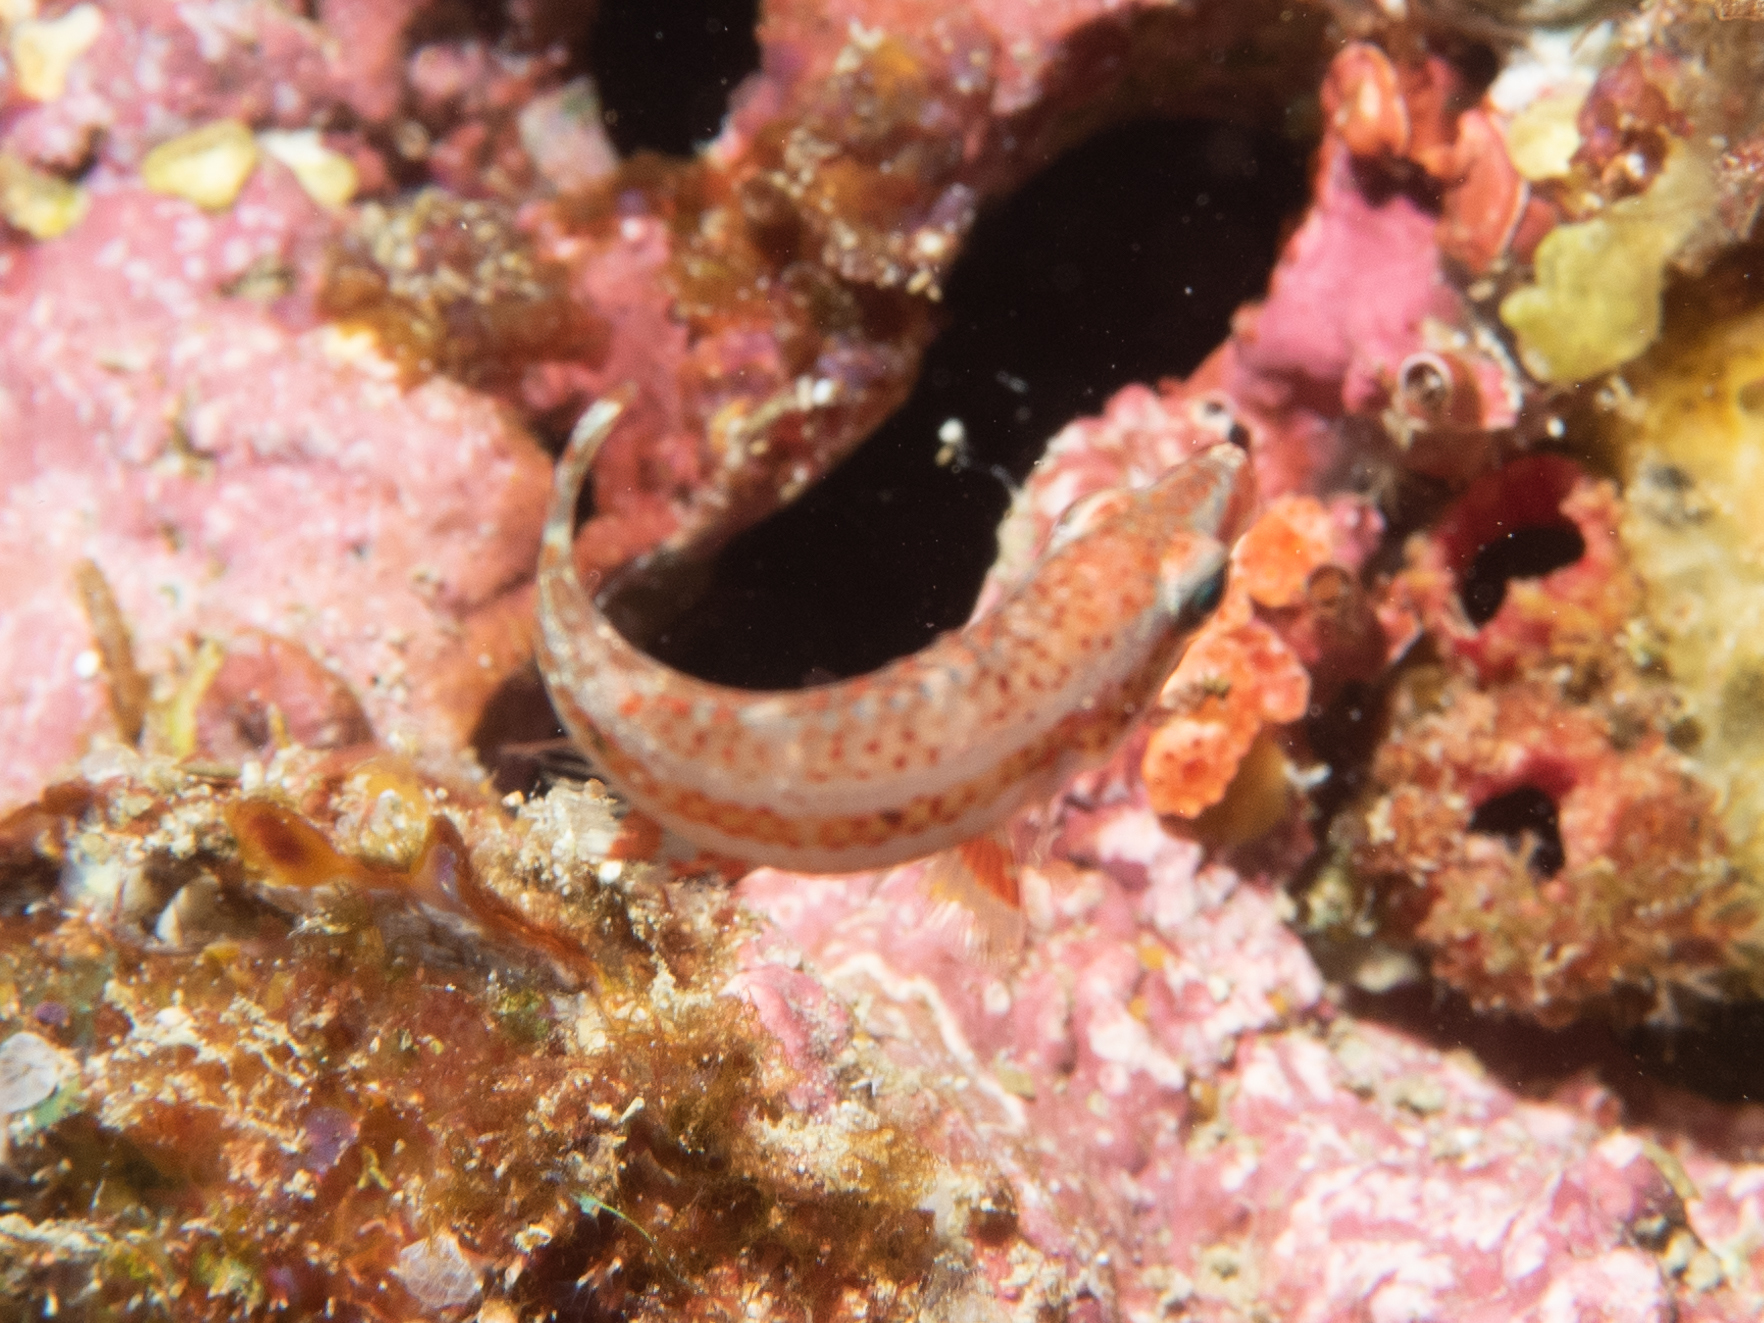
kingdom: Animalia
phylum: Chordata
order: Perciformes
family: Labridae
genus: Oxycheilinus
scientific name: Oxycheilinus digramma
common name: Bandcheek wrasse
